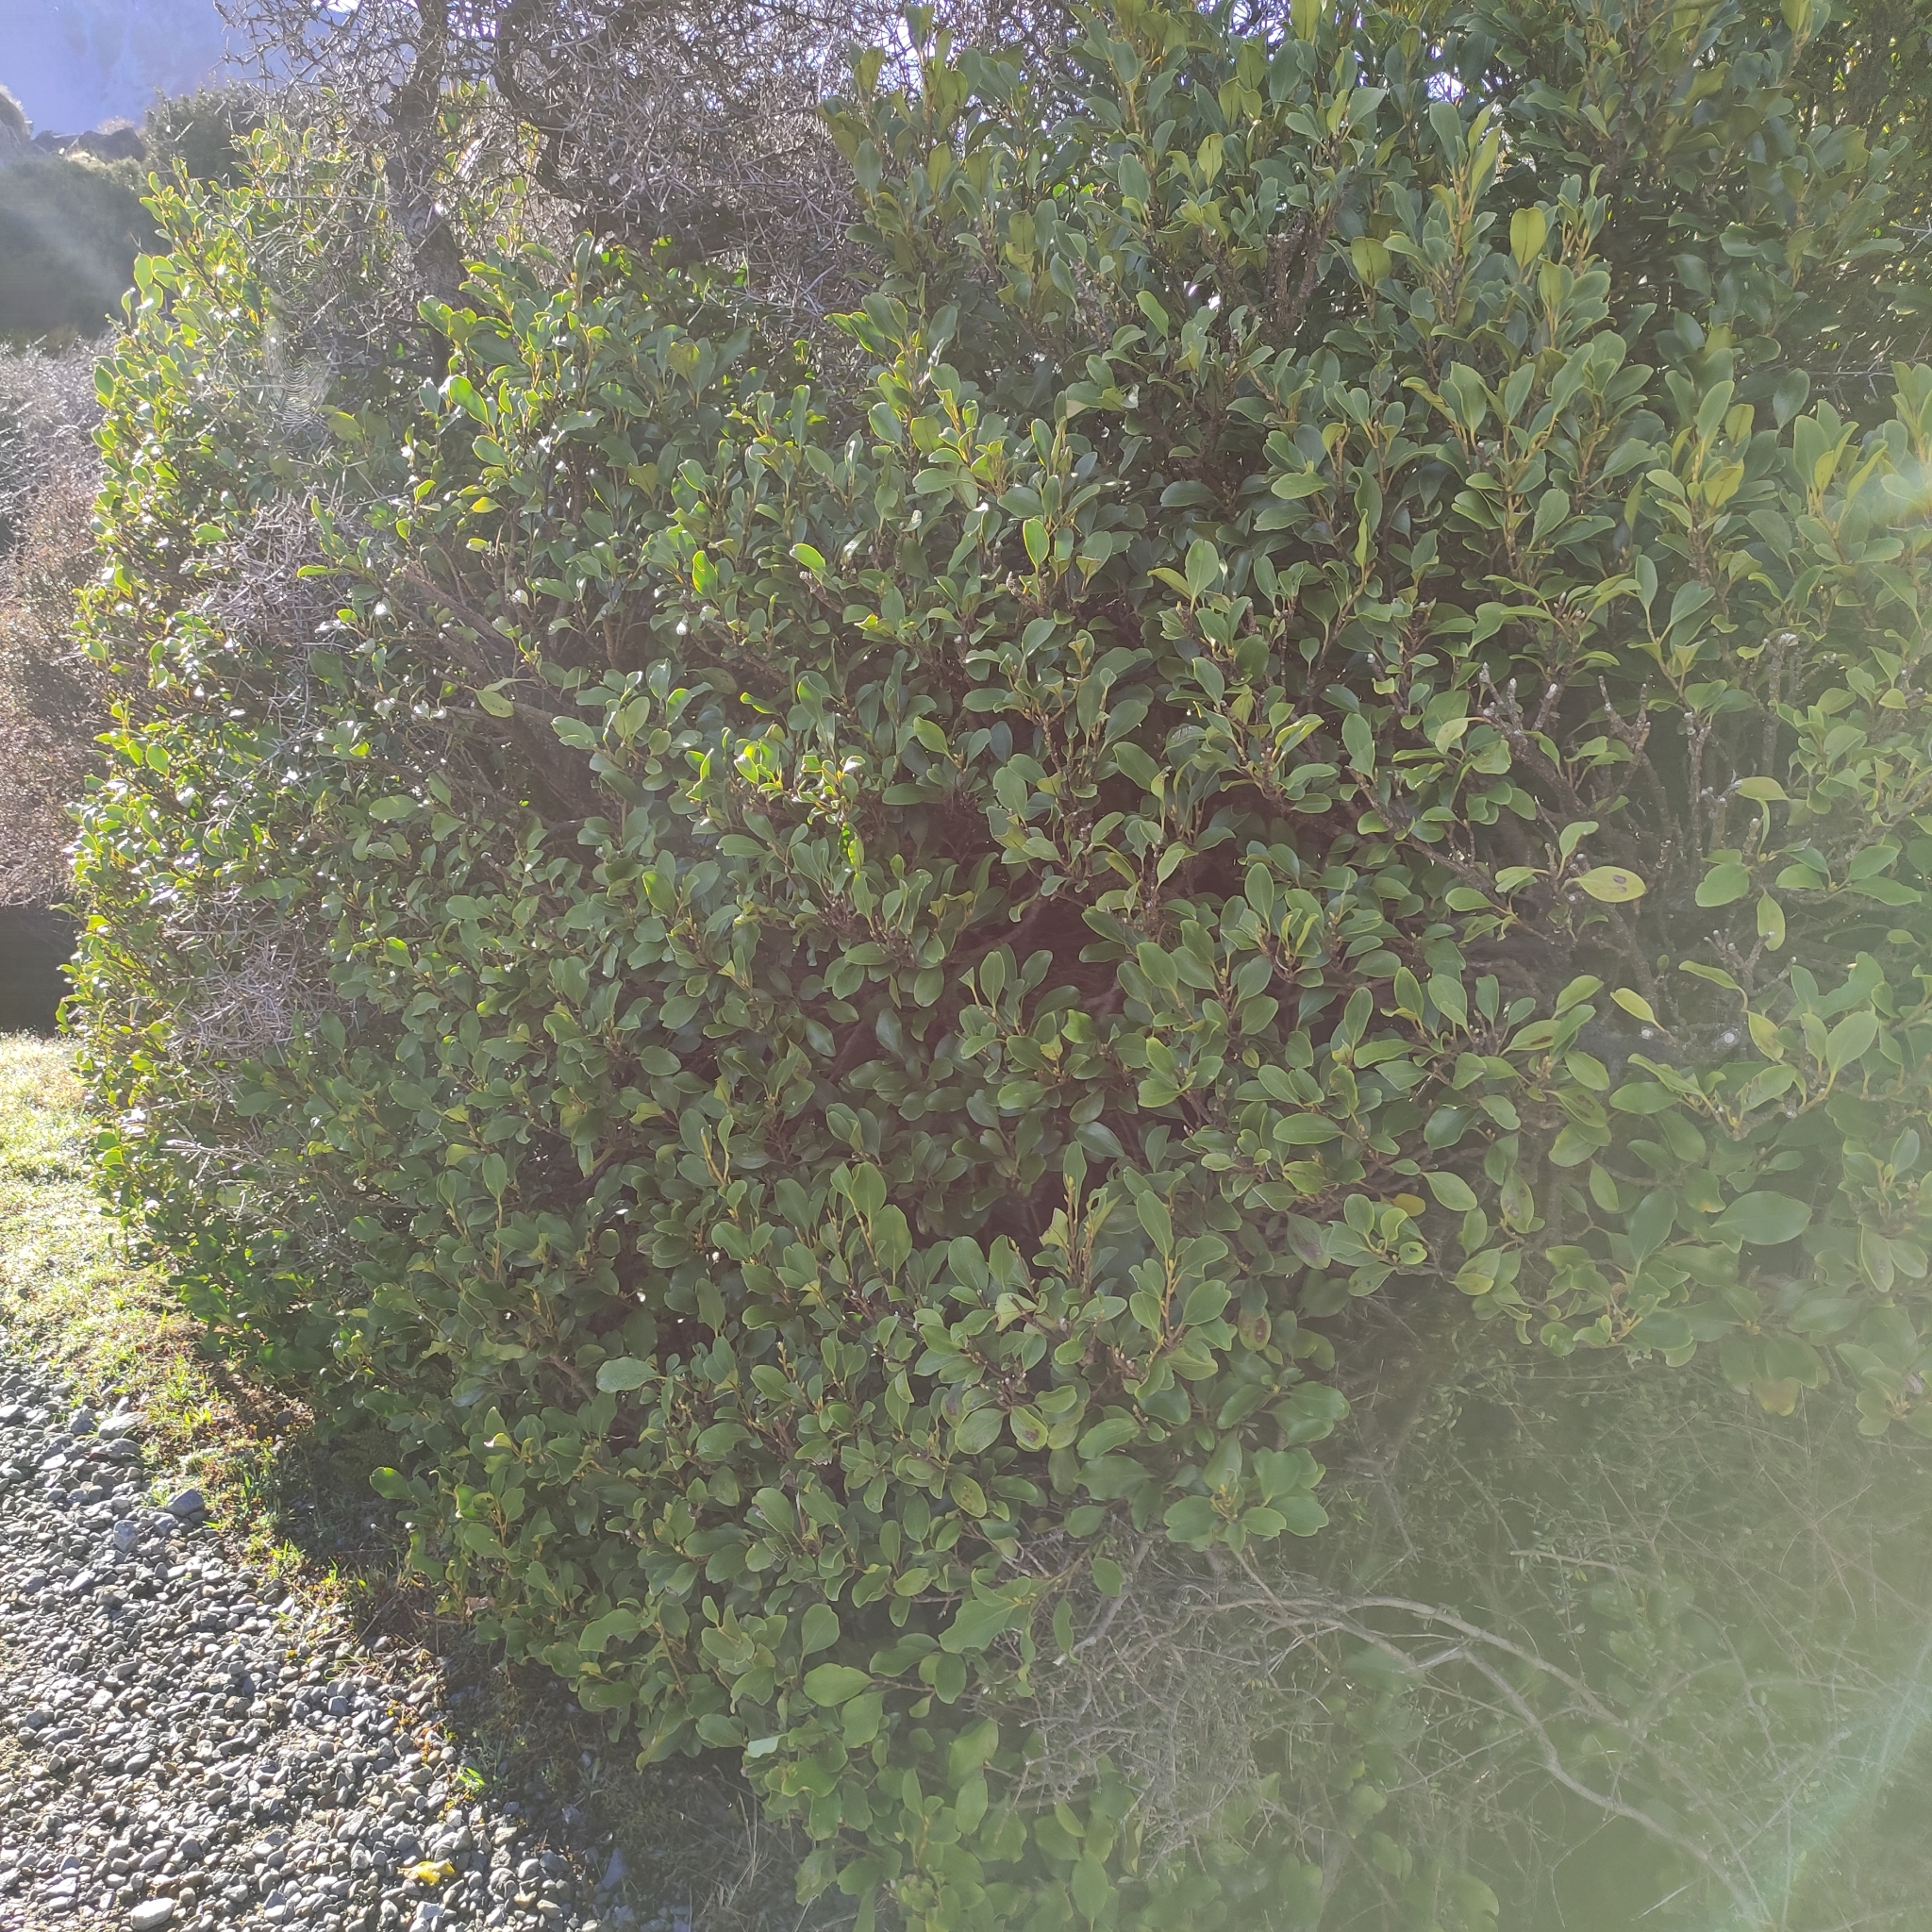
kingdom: Plantae
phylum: Tracheophyta
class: Magnoliopsida
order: Apiales
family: Griseliniaceae
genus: Griselinia
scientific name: Griselinia littoralis
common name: New zealand broadleaf
